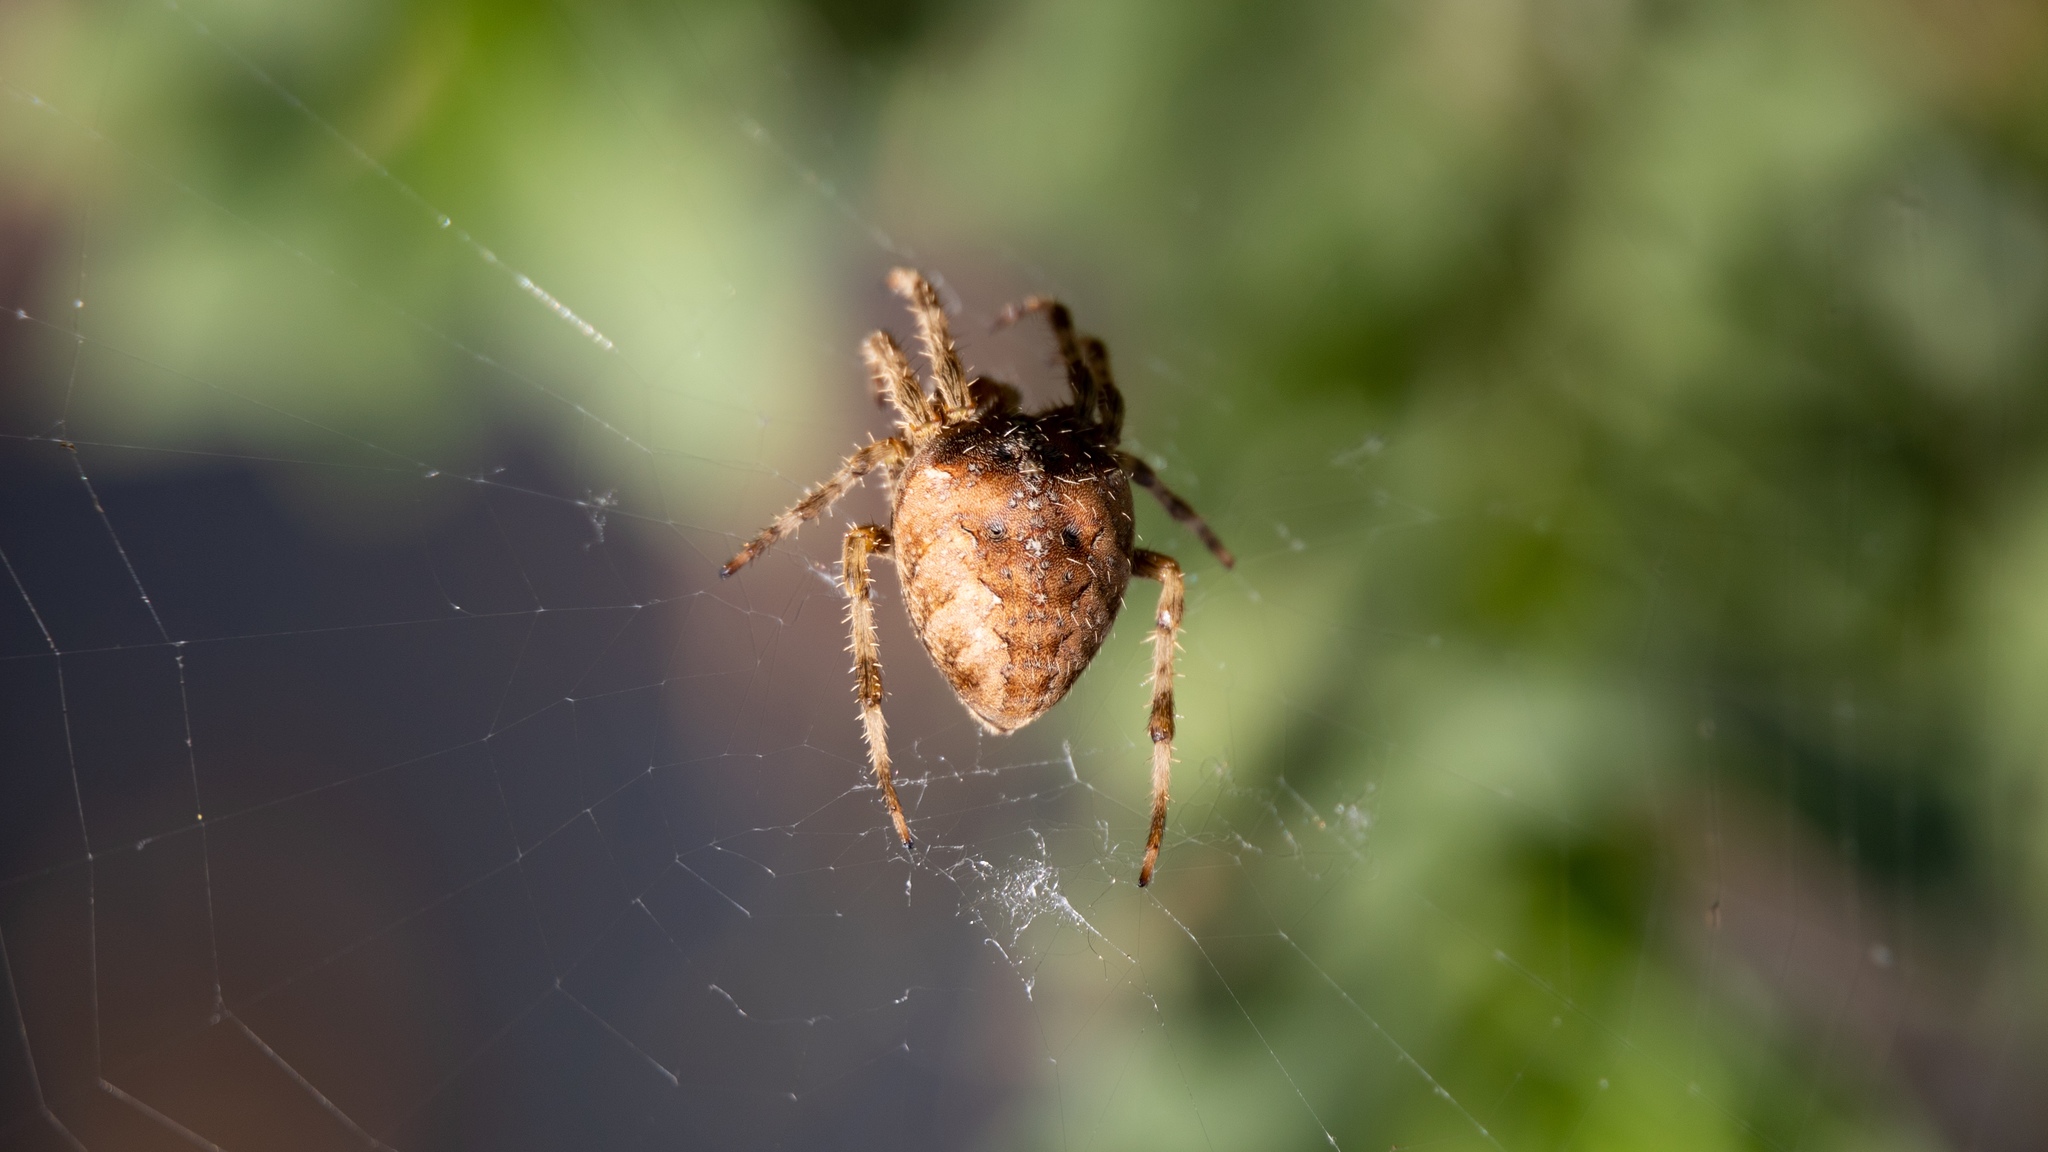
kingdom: Animalia
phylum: Arthropoda
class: Arachnida
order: Araneae
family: Araneidae
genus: Araneus
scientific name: Araneus diadematus
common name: Cross orbweaver
